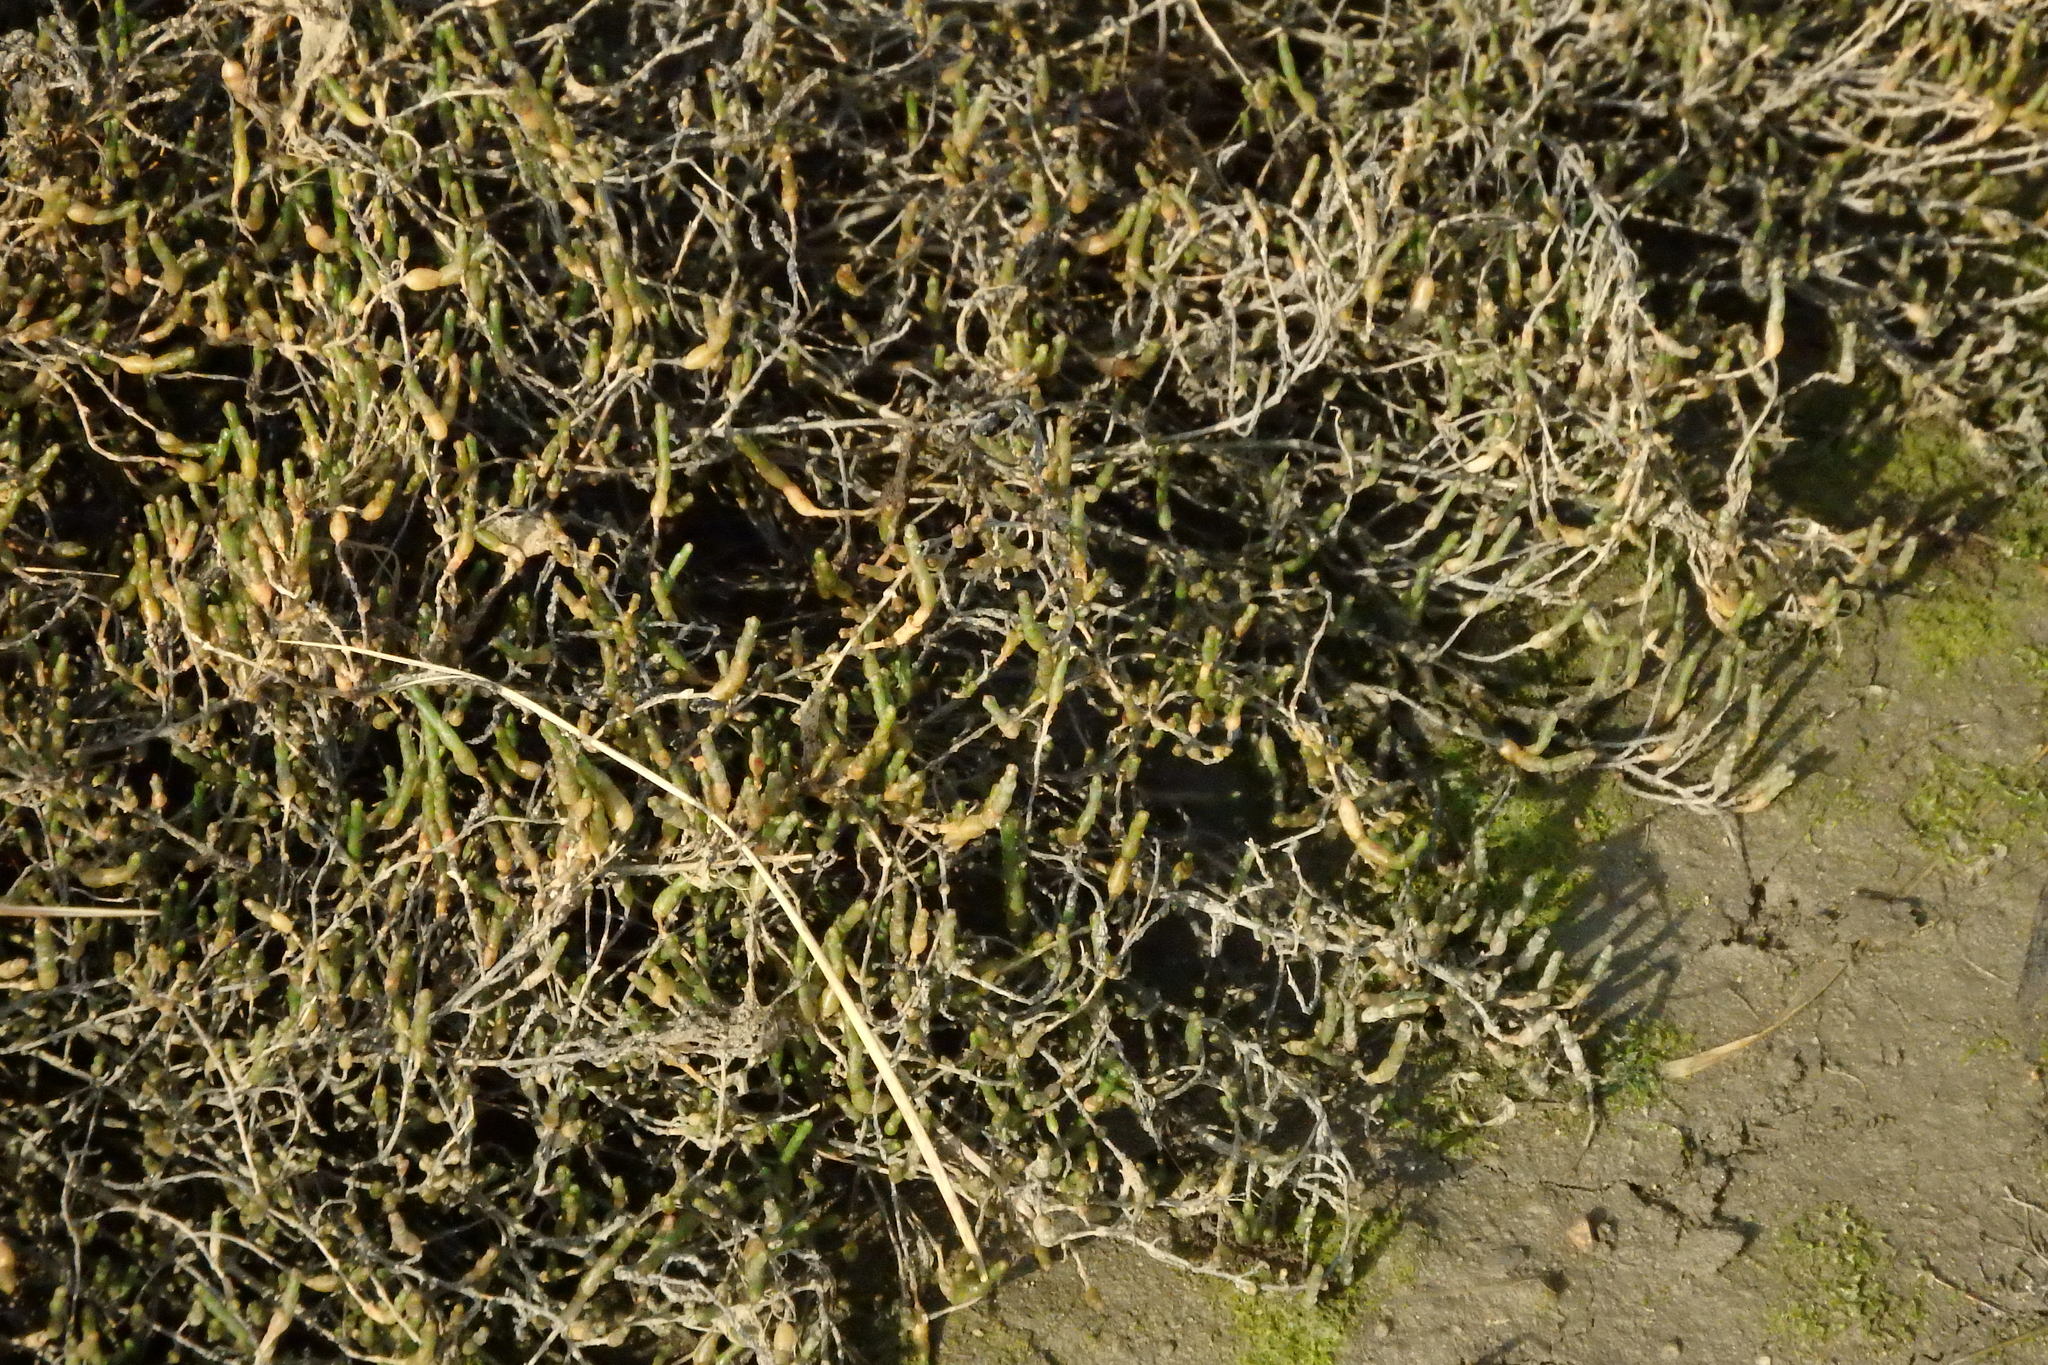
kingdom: Plantae
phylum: Tracheophyta
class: Magnoliopsida
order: Caryophyllales
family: Amaranthaceae
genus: Salicornia
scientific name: Salicornia perennis
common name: Chicken claws
